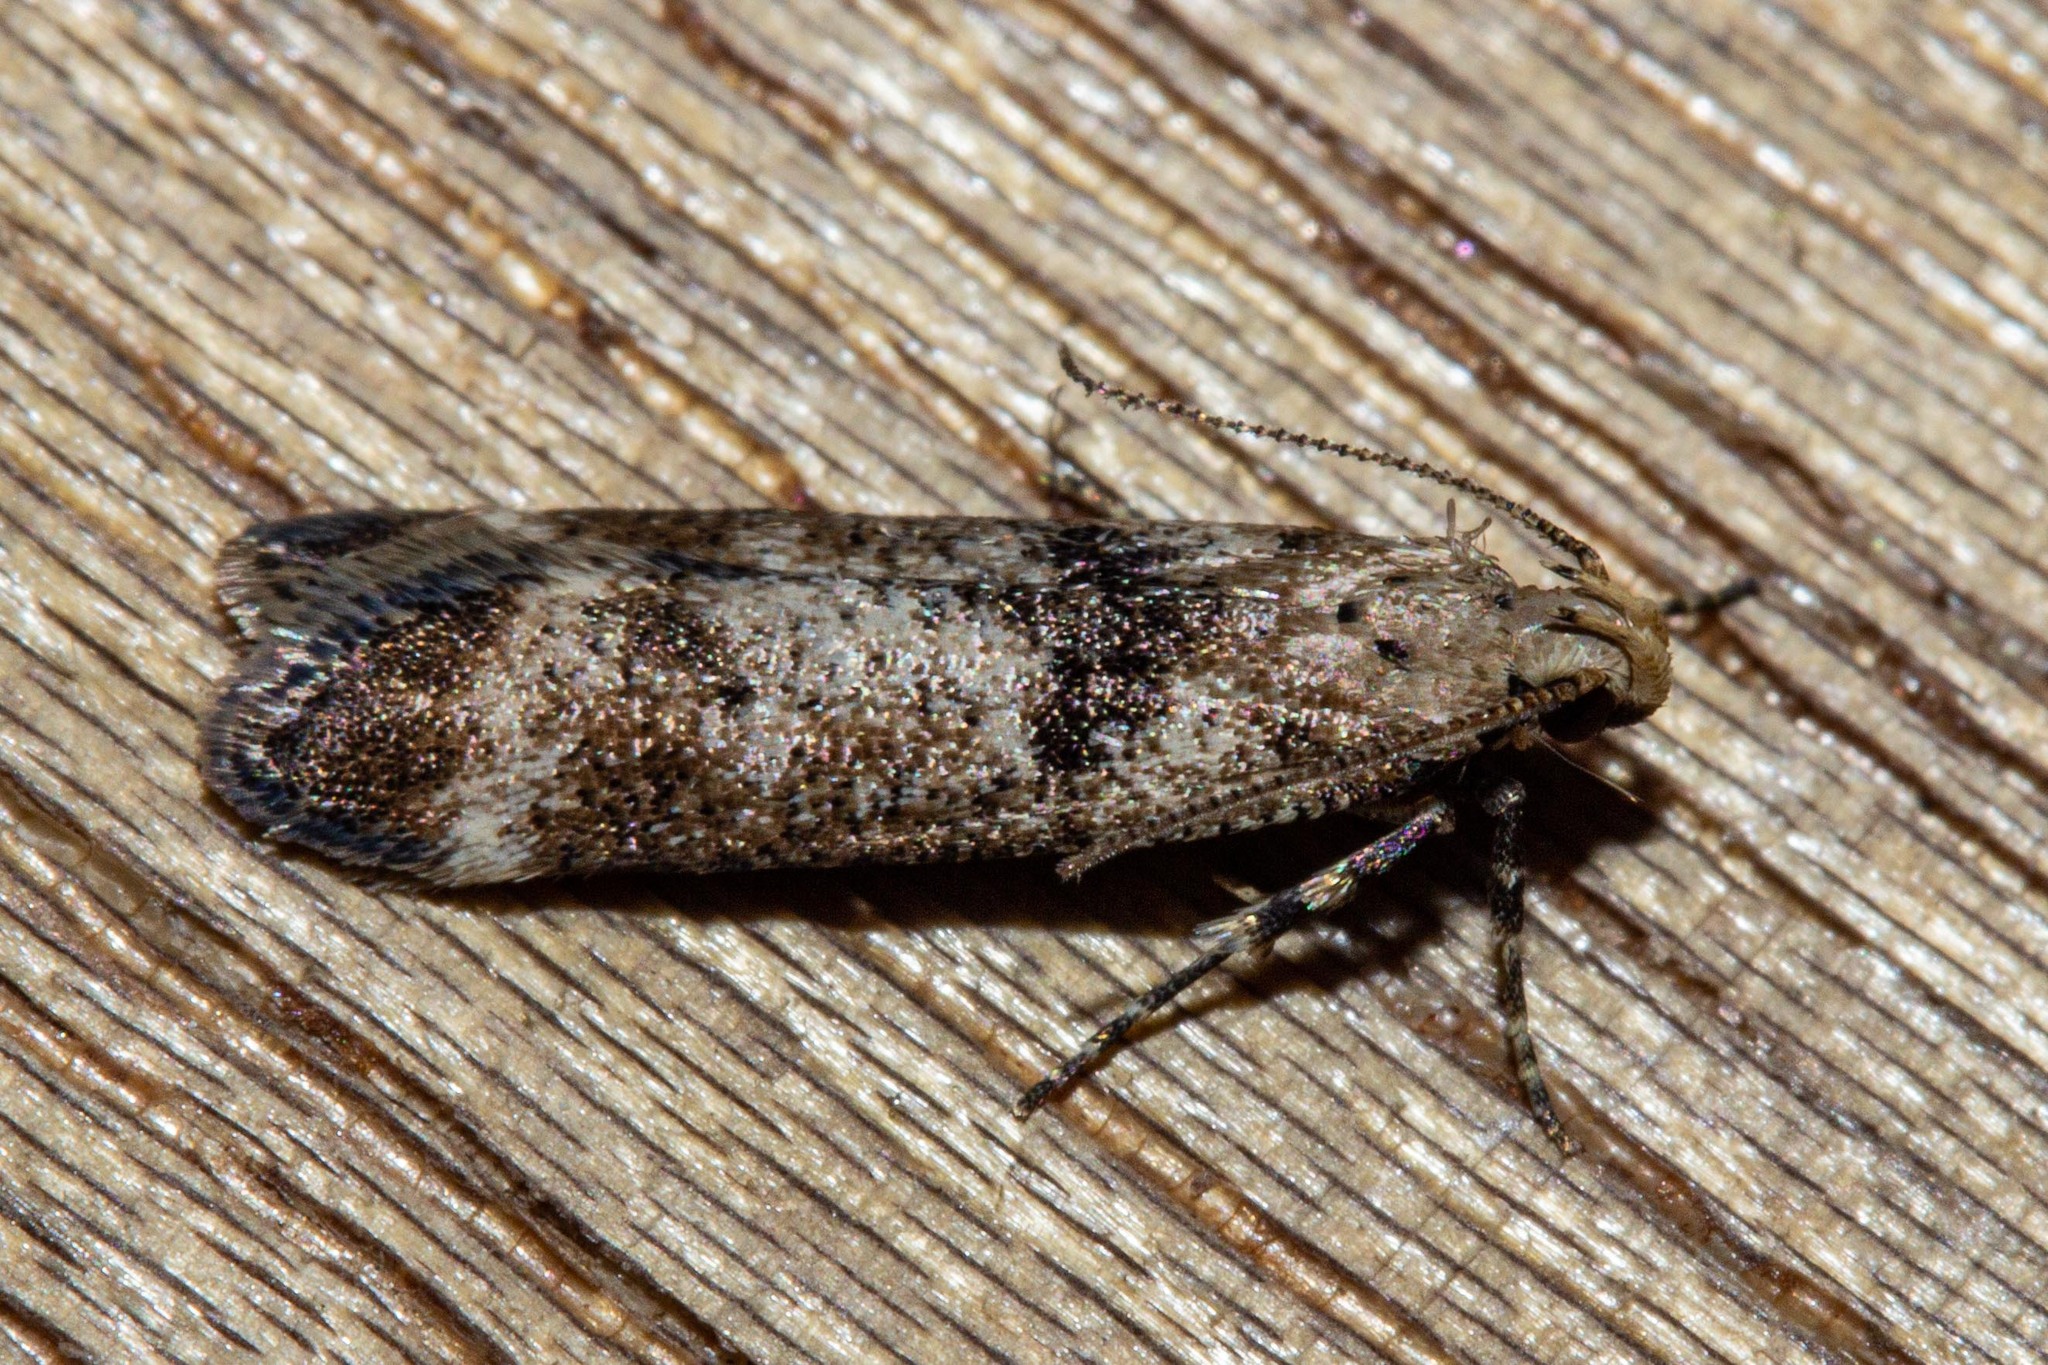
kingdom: Animalia
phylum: Arthropoda
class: Insecta
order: Lepidoptera
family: Gelechiidae
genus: Anisoplaca
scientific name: Anisoplaca acrodactyla
